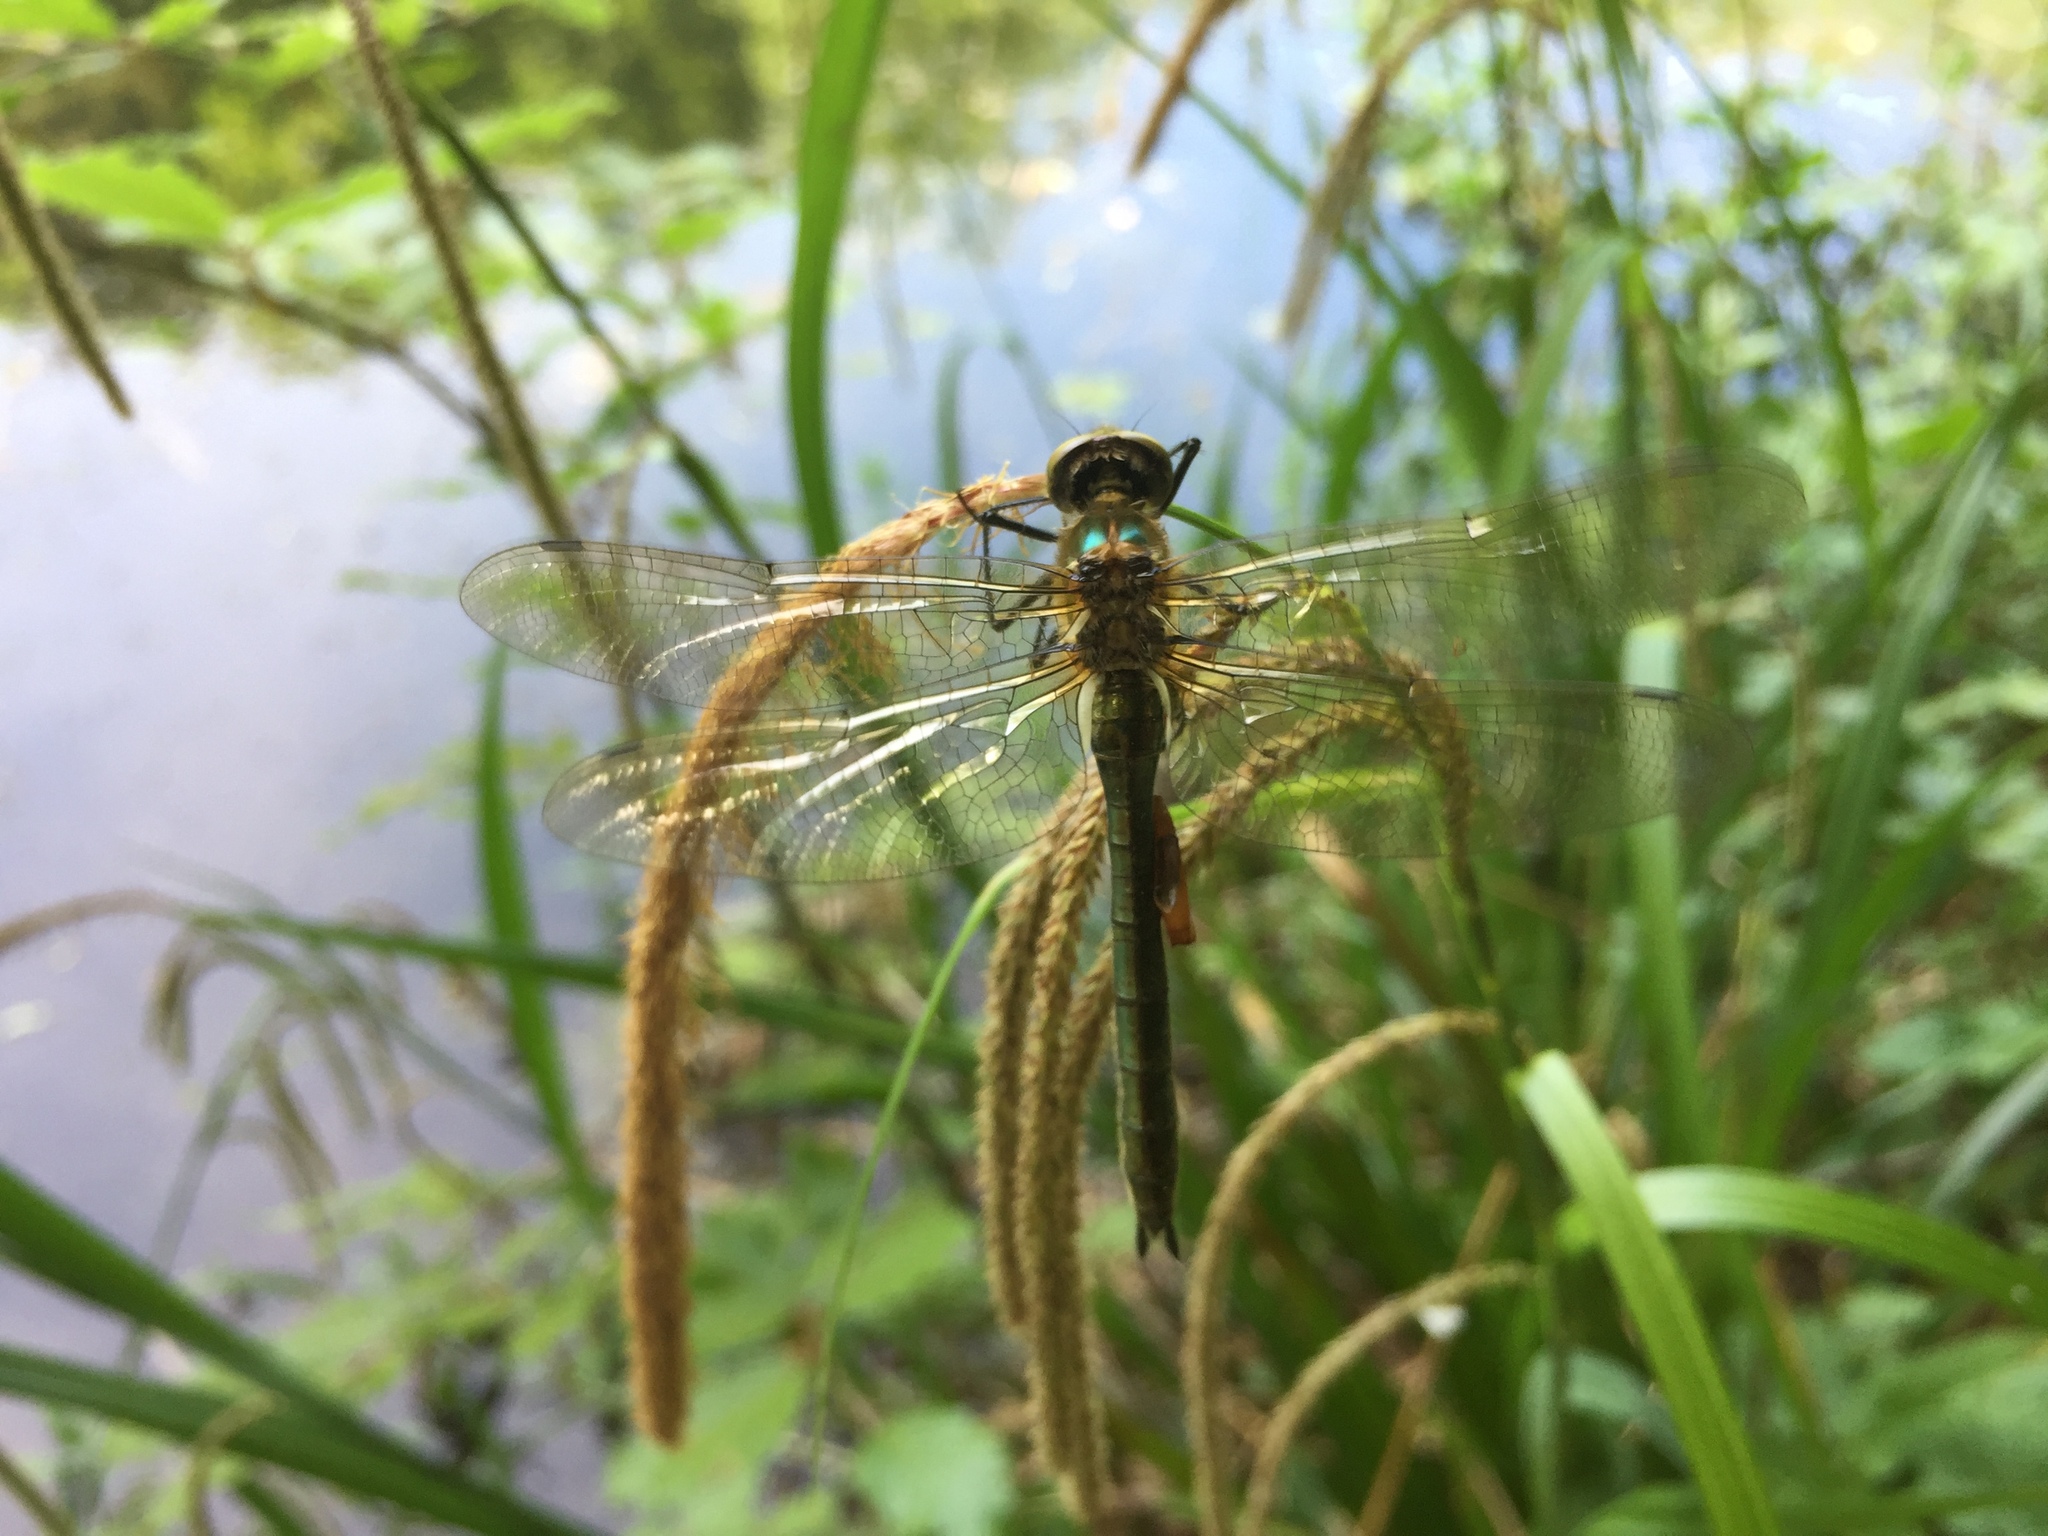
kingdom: Animalia
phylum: Arthropoda
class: Insecta
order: Odonata
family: Corduliidae
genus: Cordulia
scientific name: Cordulia aenea
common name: Downy emerald
